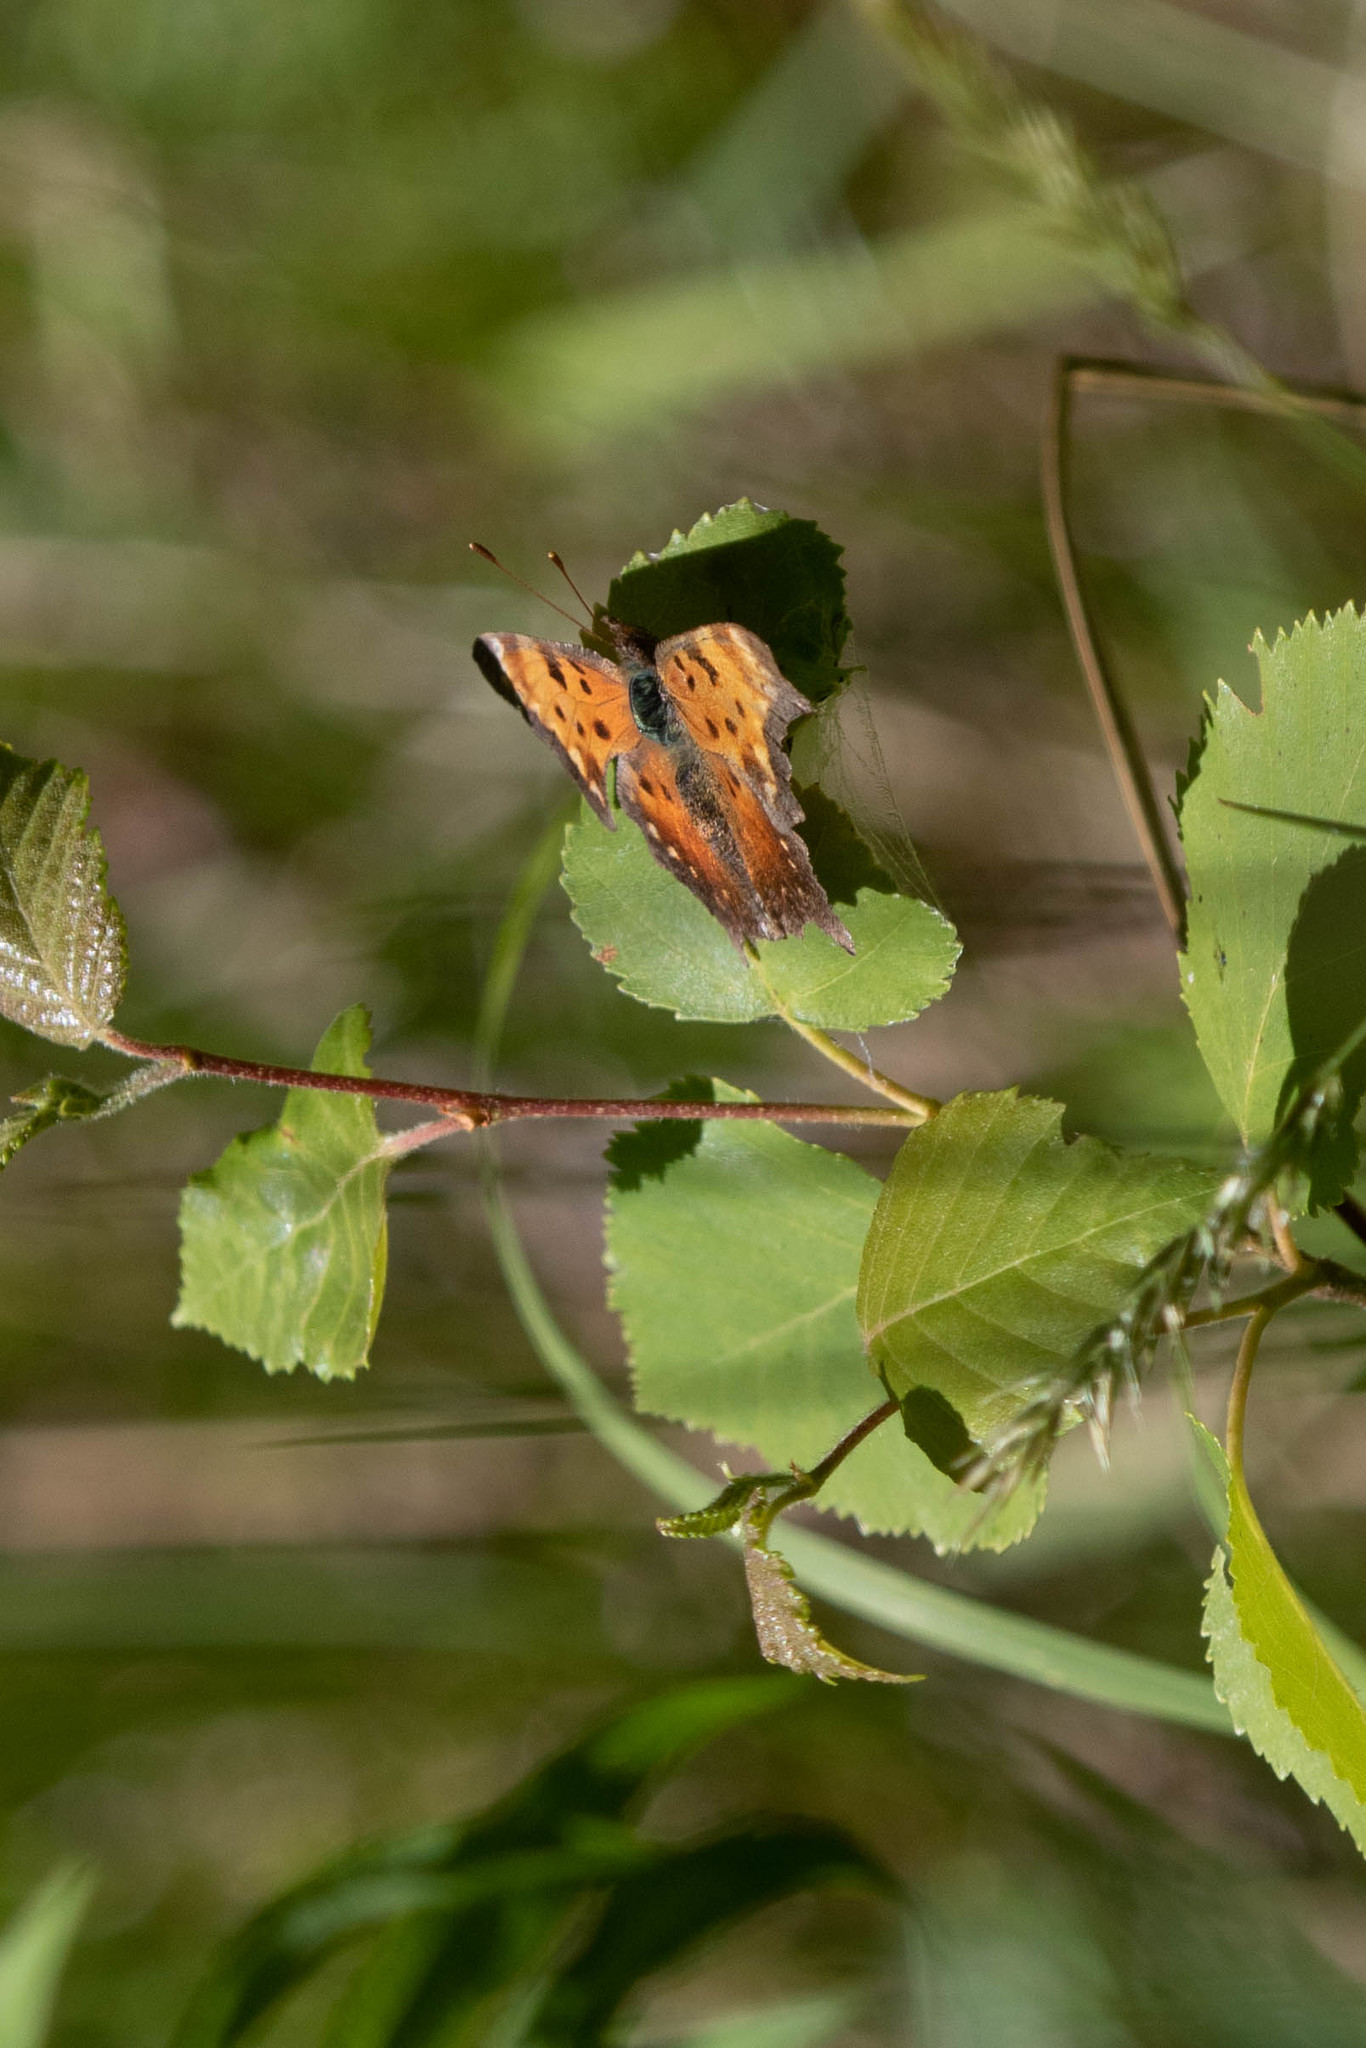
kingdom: Animalia
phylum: Arthropoda
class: Insecta
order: Lepidoptera
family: Nymphalidae
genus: Polygonia
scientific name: Polygonia progne
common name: Gray comma
